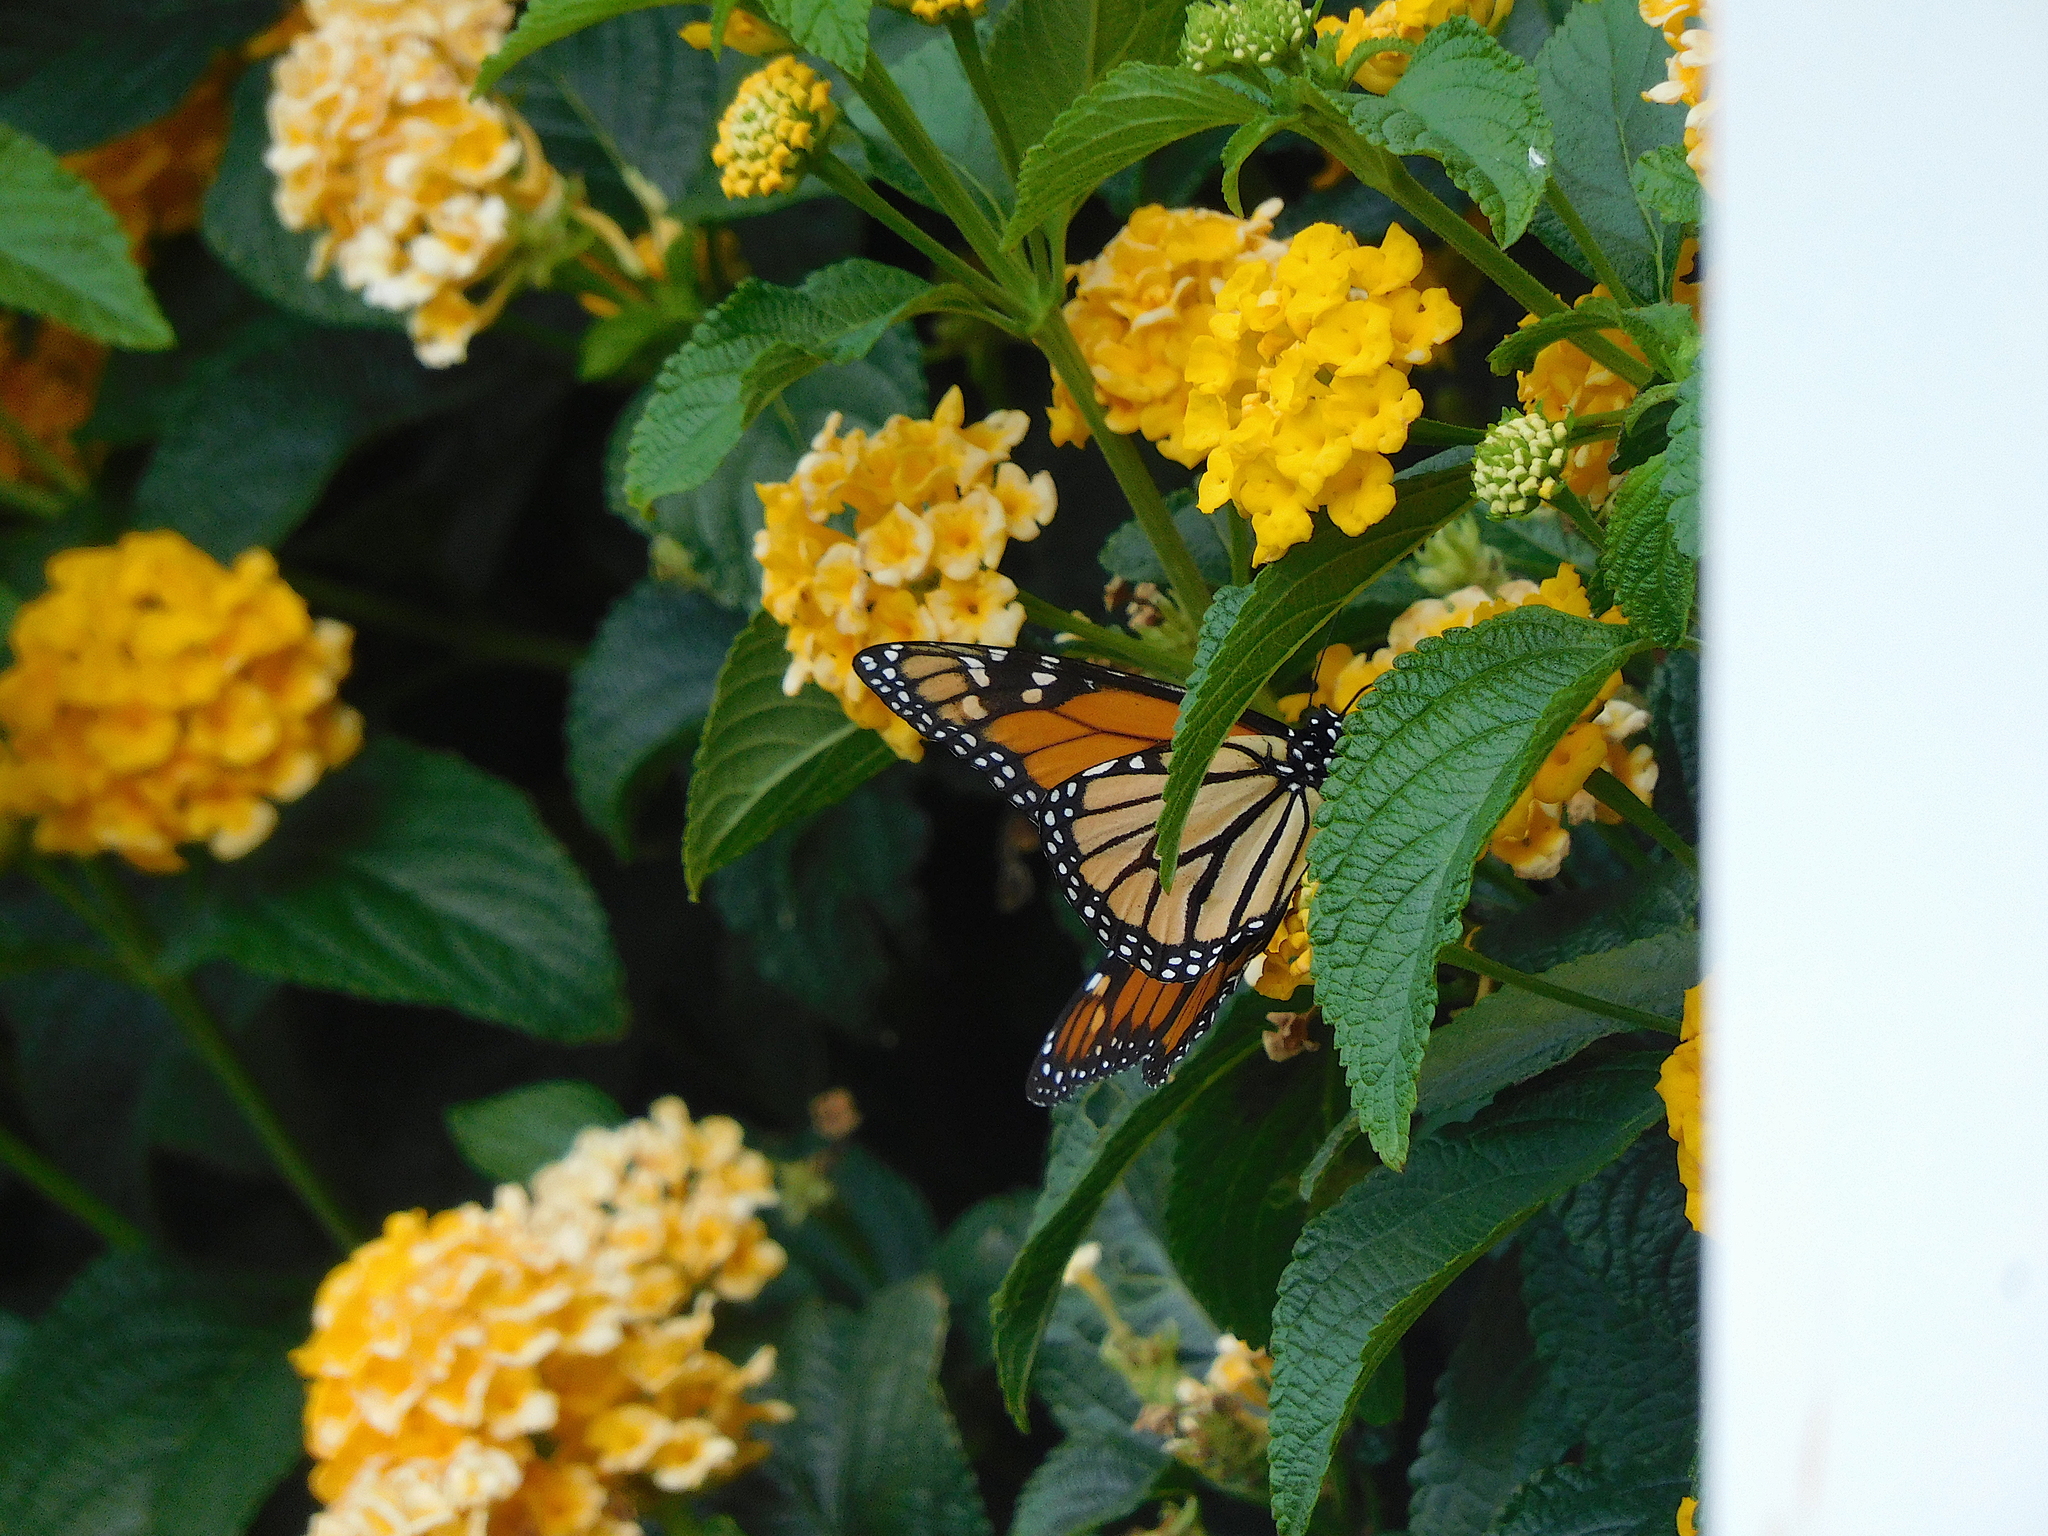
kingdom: Animalia
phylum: Arthropoda
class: Insecta
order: Lepidoptera
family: Nymphalidae
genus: Danaus
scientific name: Danaus plexippus
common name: Monarch
